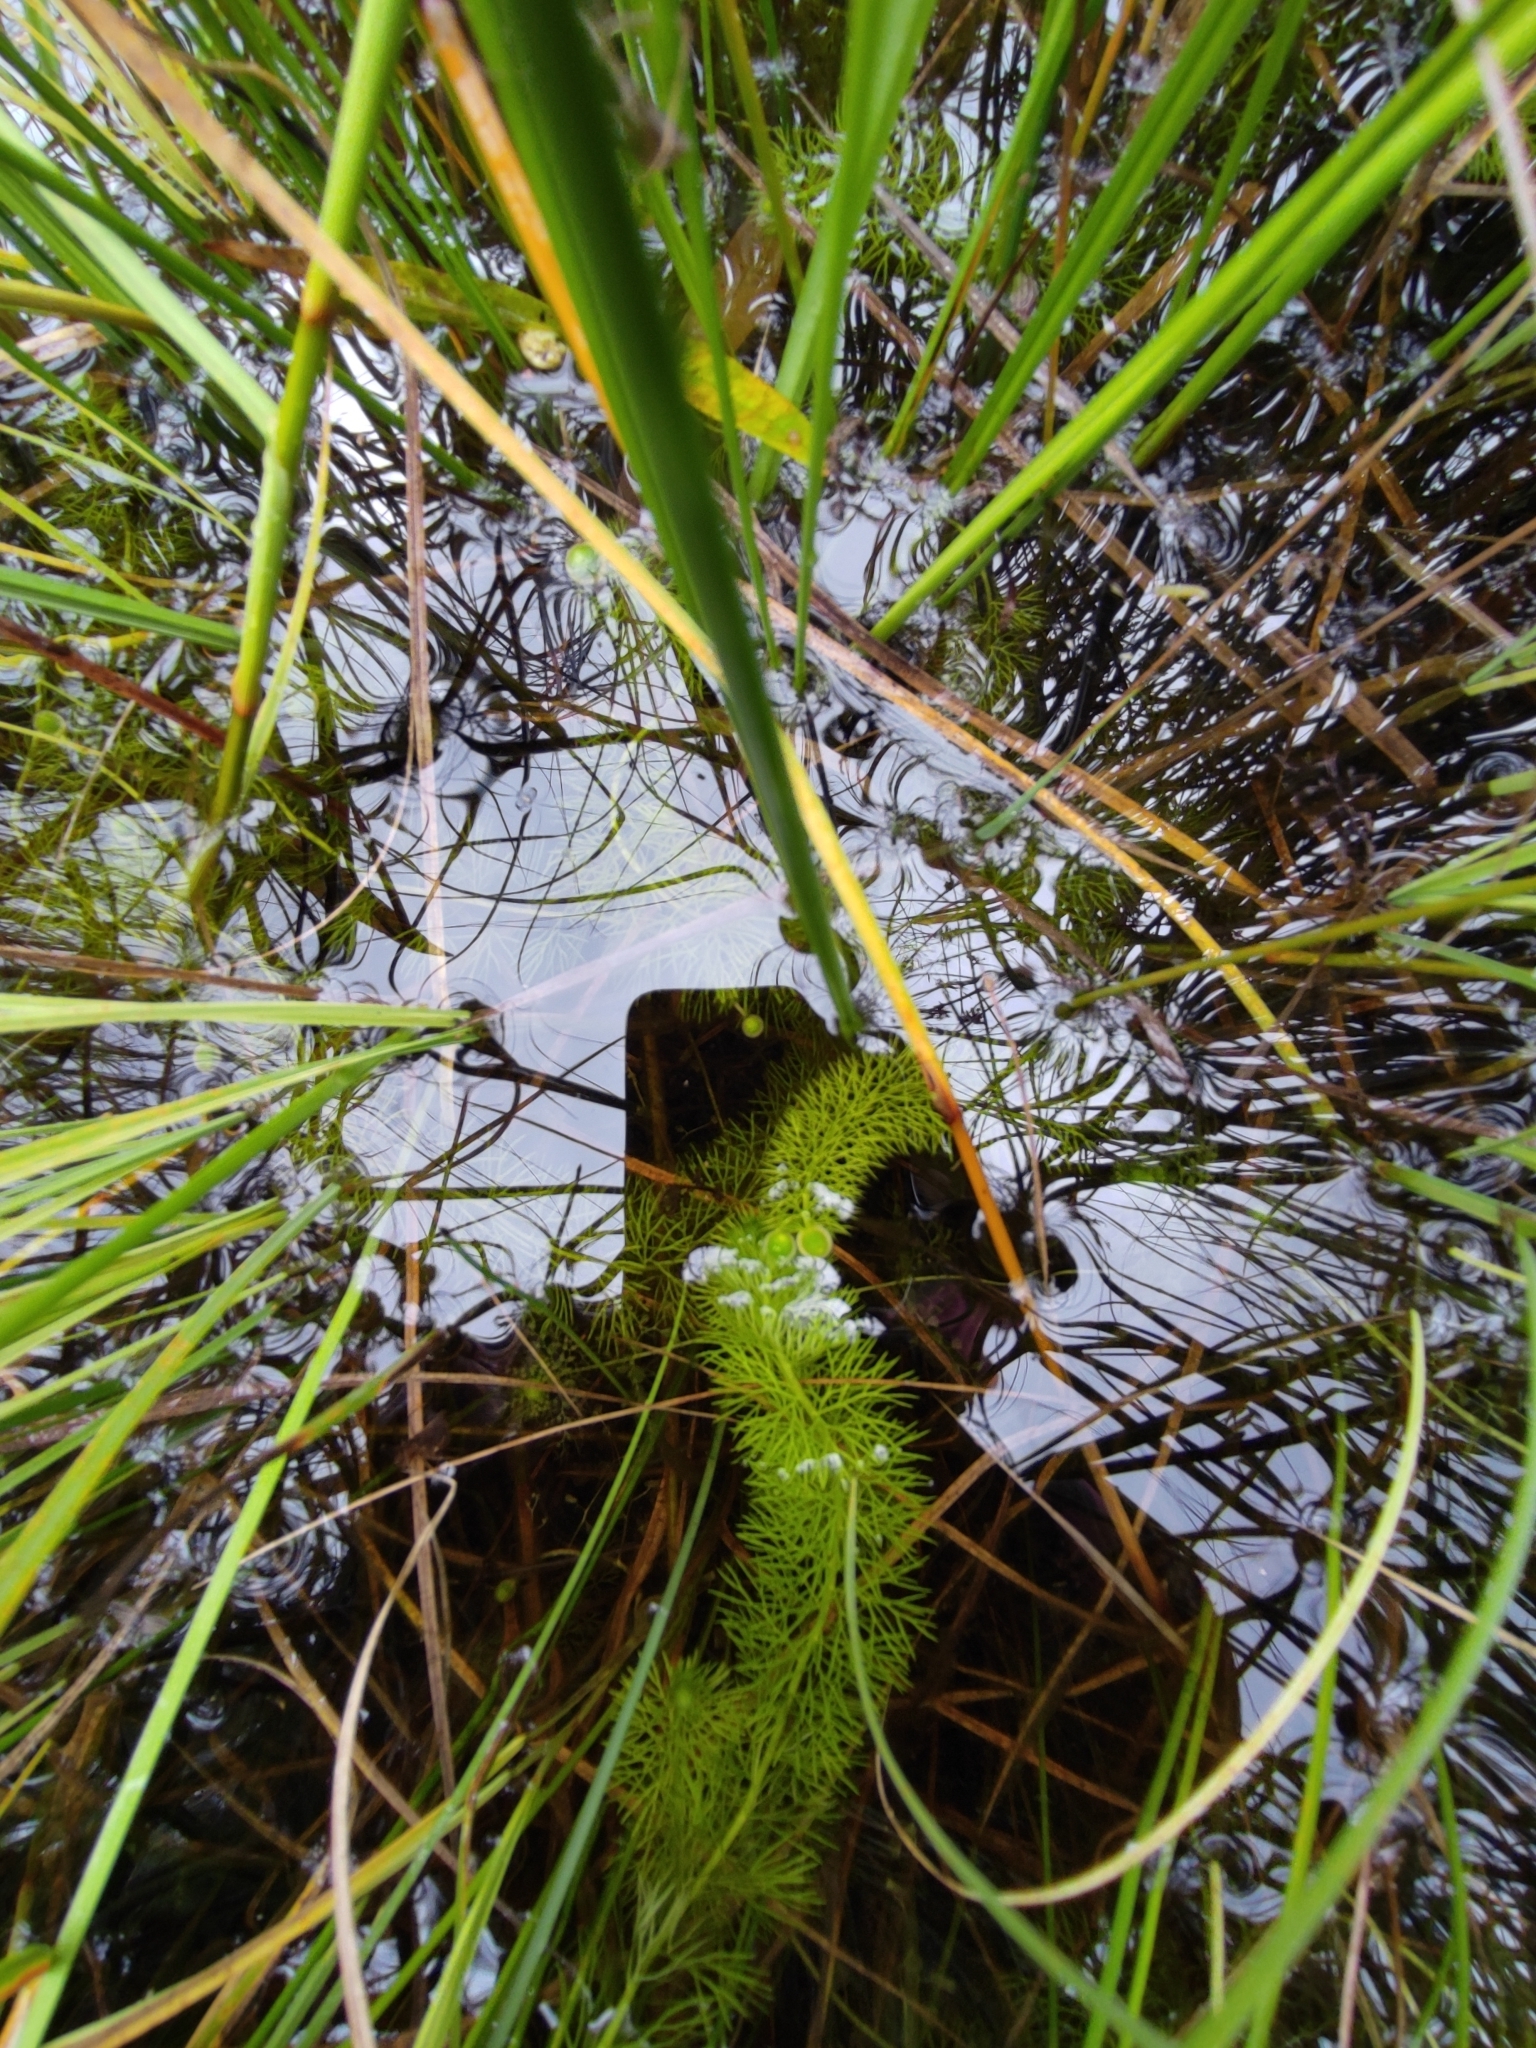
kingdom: Plantae
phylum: Tracheophyta
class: Magnoliopsida
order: Lamiales
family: Lentibulariaceae
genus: Utricularia
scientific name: Utricularia intermedia
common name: Intermediate bladderwort
